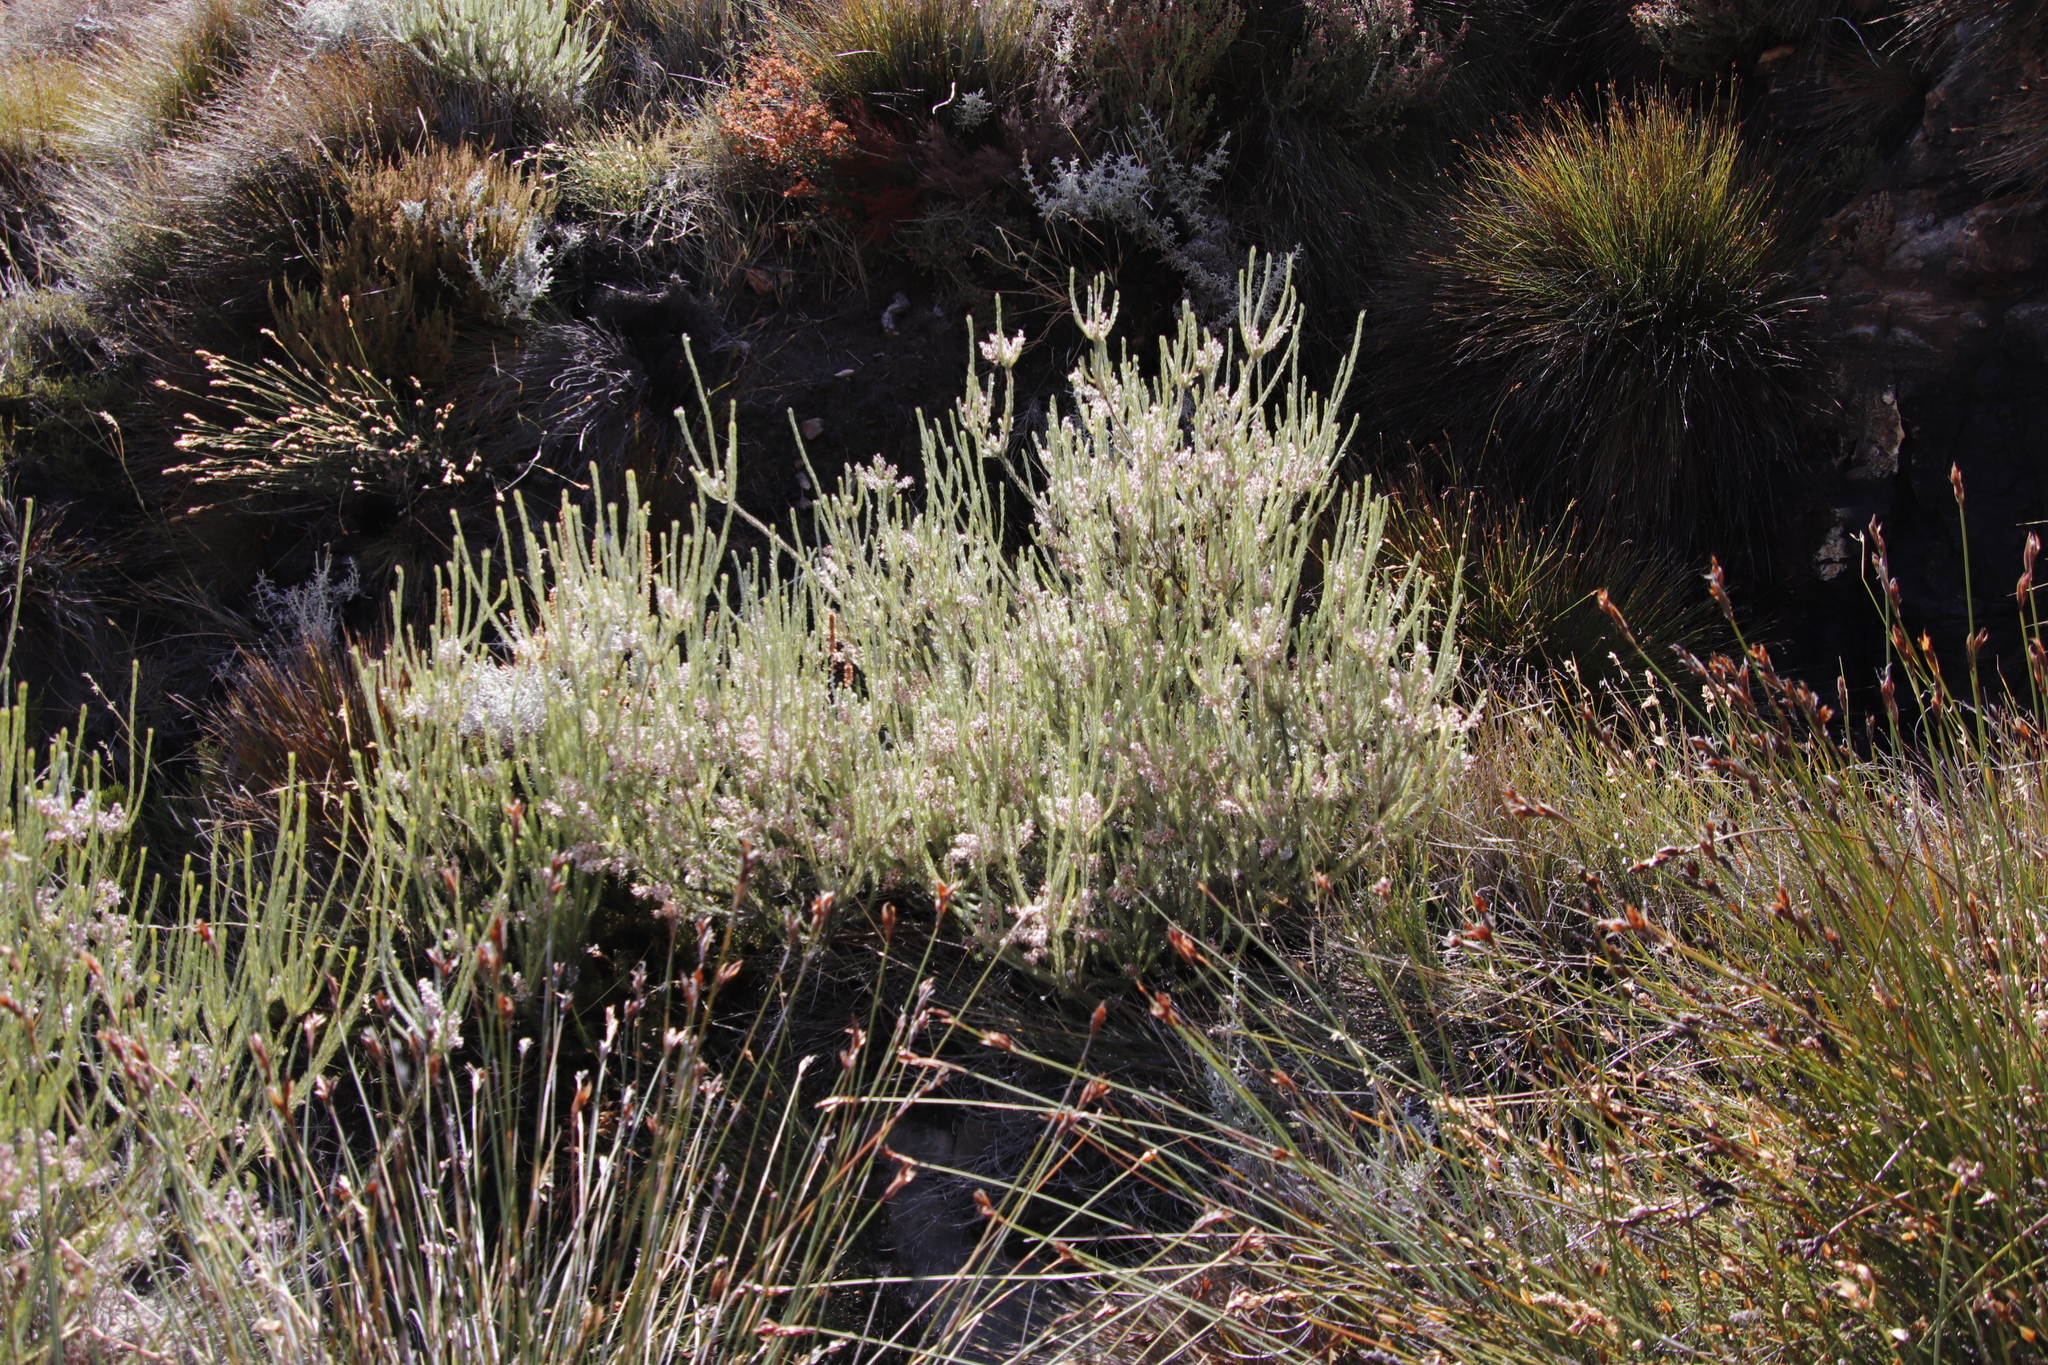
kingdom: Plantae
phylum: Tracheophyta
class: Magnoliopsida
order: Proteales
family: Proteaceae
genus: Spatalla
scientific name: Spatalla incurva
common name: Swan-head spoon
